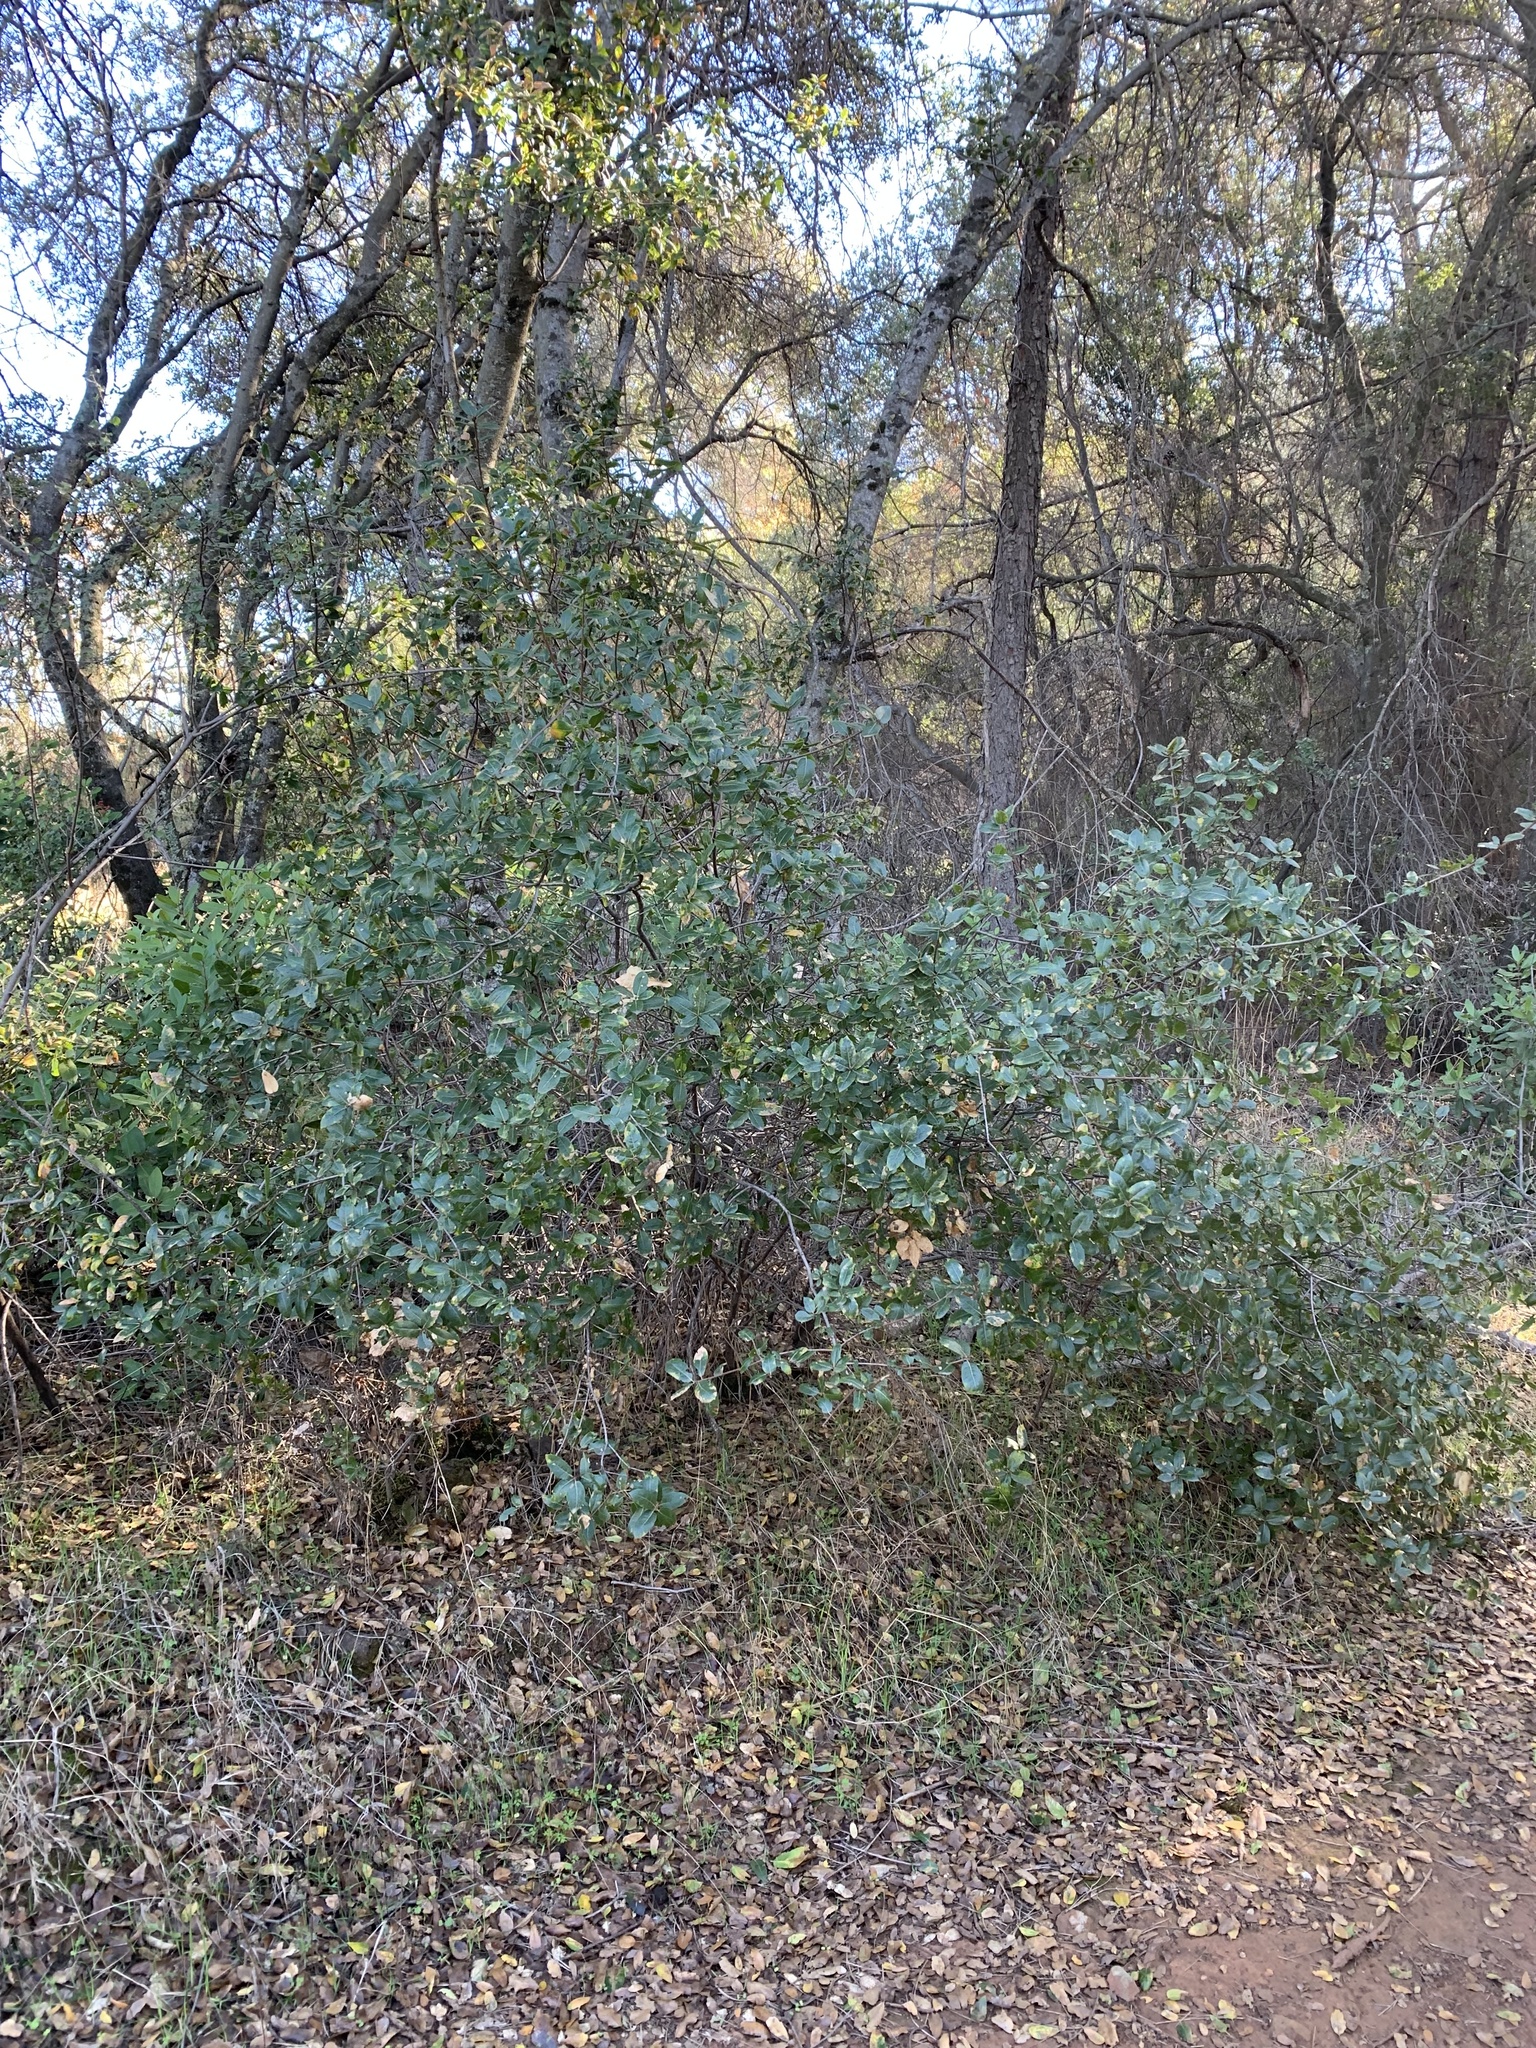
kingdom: Plantae
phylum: Tracheophyta
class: Magnoliopsida
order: Fagales
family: Fagaceae
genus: Quercus
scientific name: Quercus wislizeni
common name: Interior live oak
